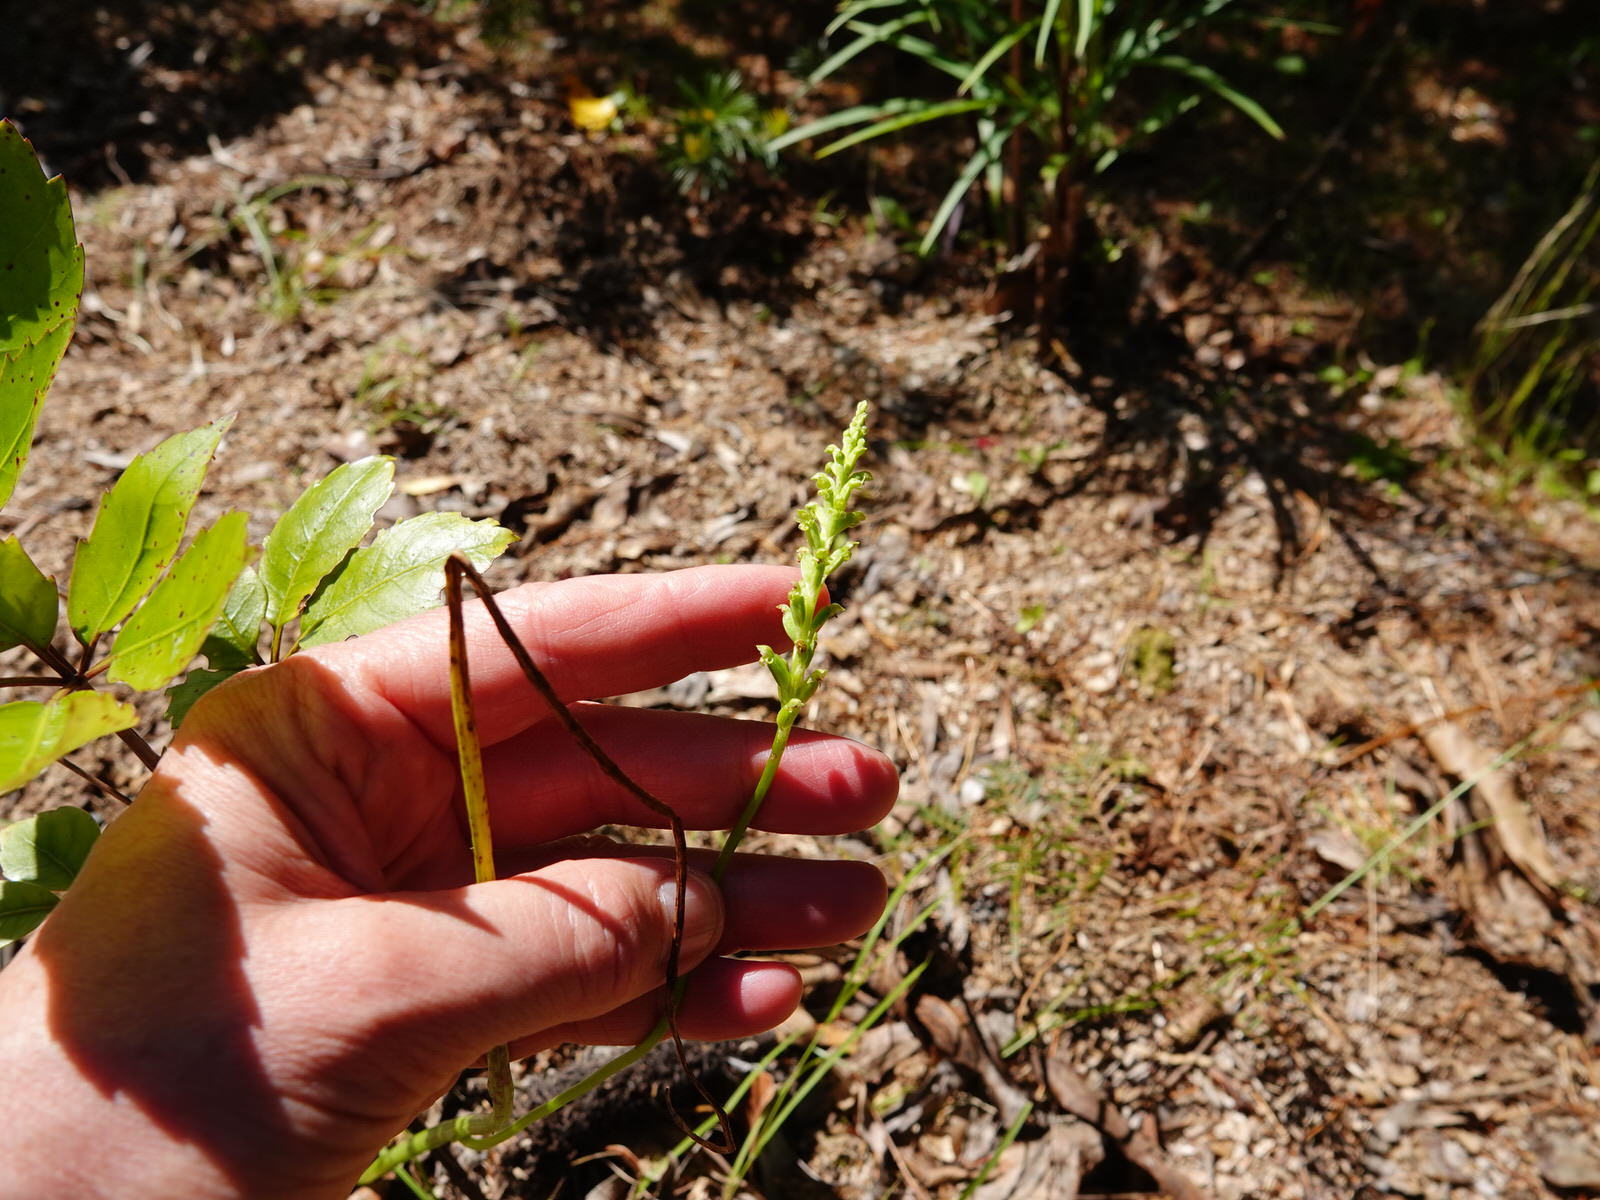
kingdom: Plantae
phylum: Tracheophyta
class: Liliopsida
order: Asparagales
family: Orchidaceae
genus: Microtis
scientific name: Microtis unifolia
